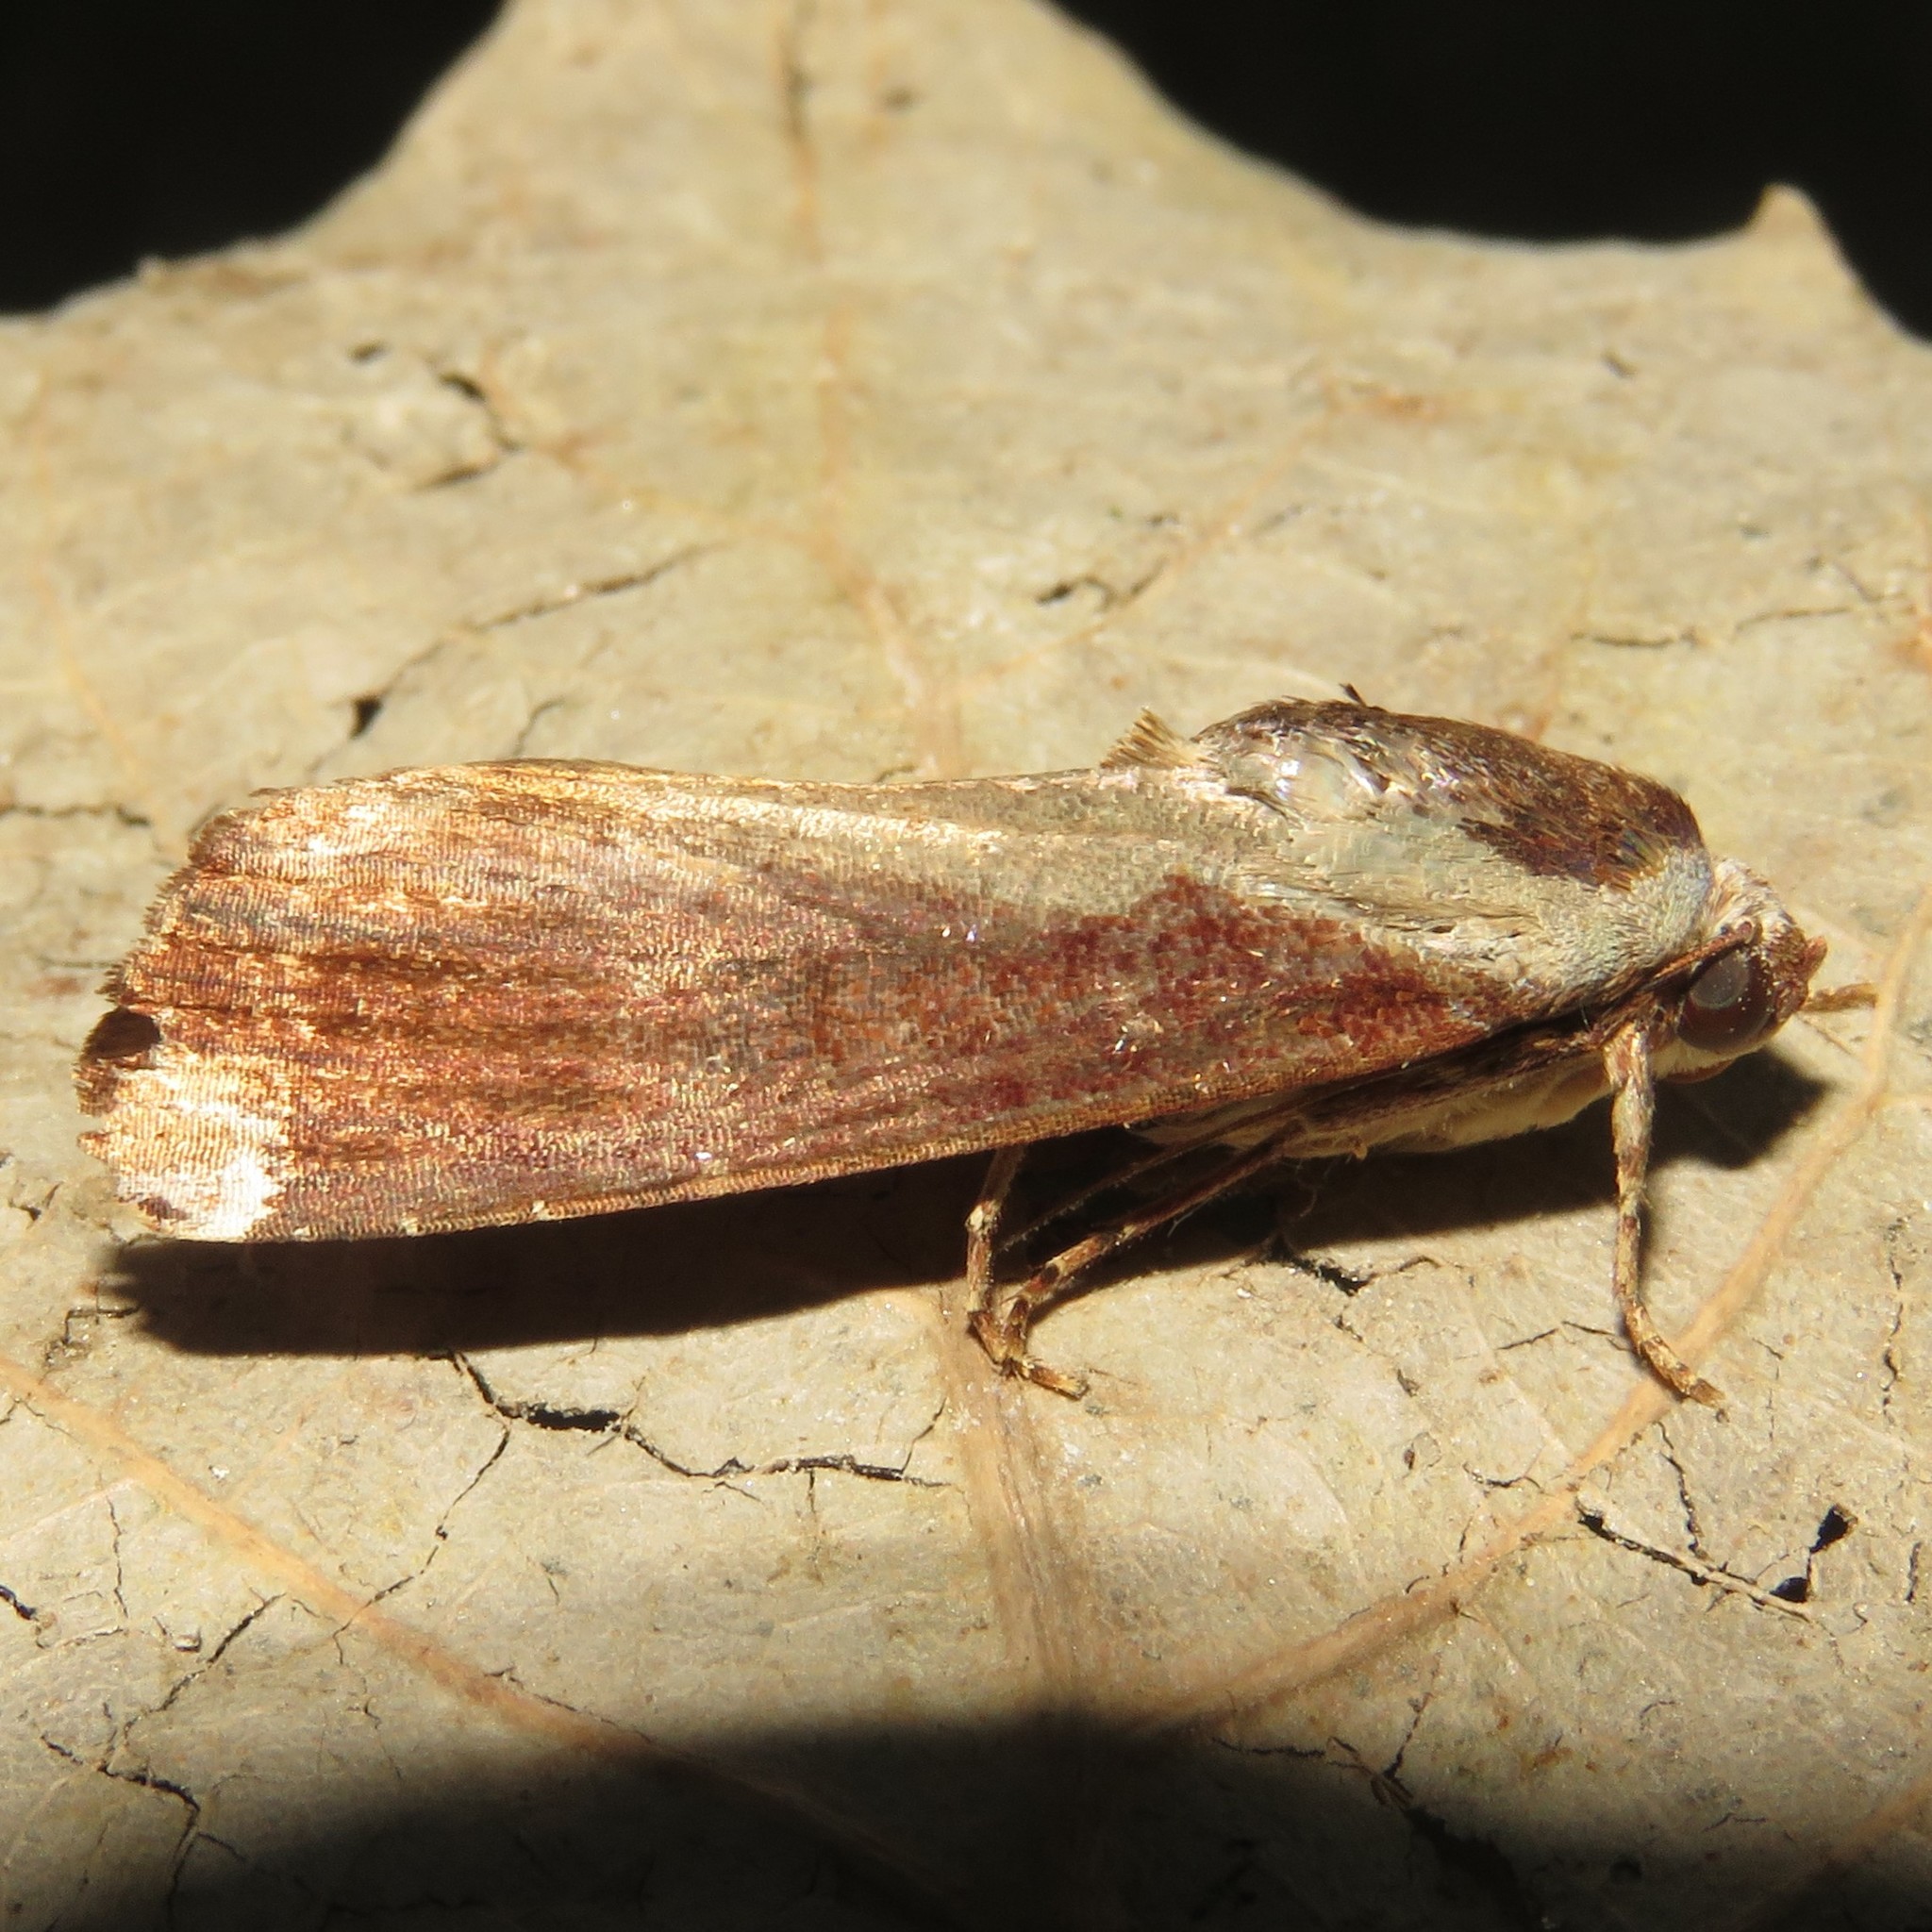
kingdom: Animalia
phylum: Arthropoda
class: Insecta
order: Lepidoptera
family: Noctuidae
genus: Magusa
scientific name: Magusa divaricata
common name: Orb narrow-winged moth
